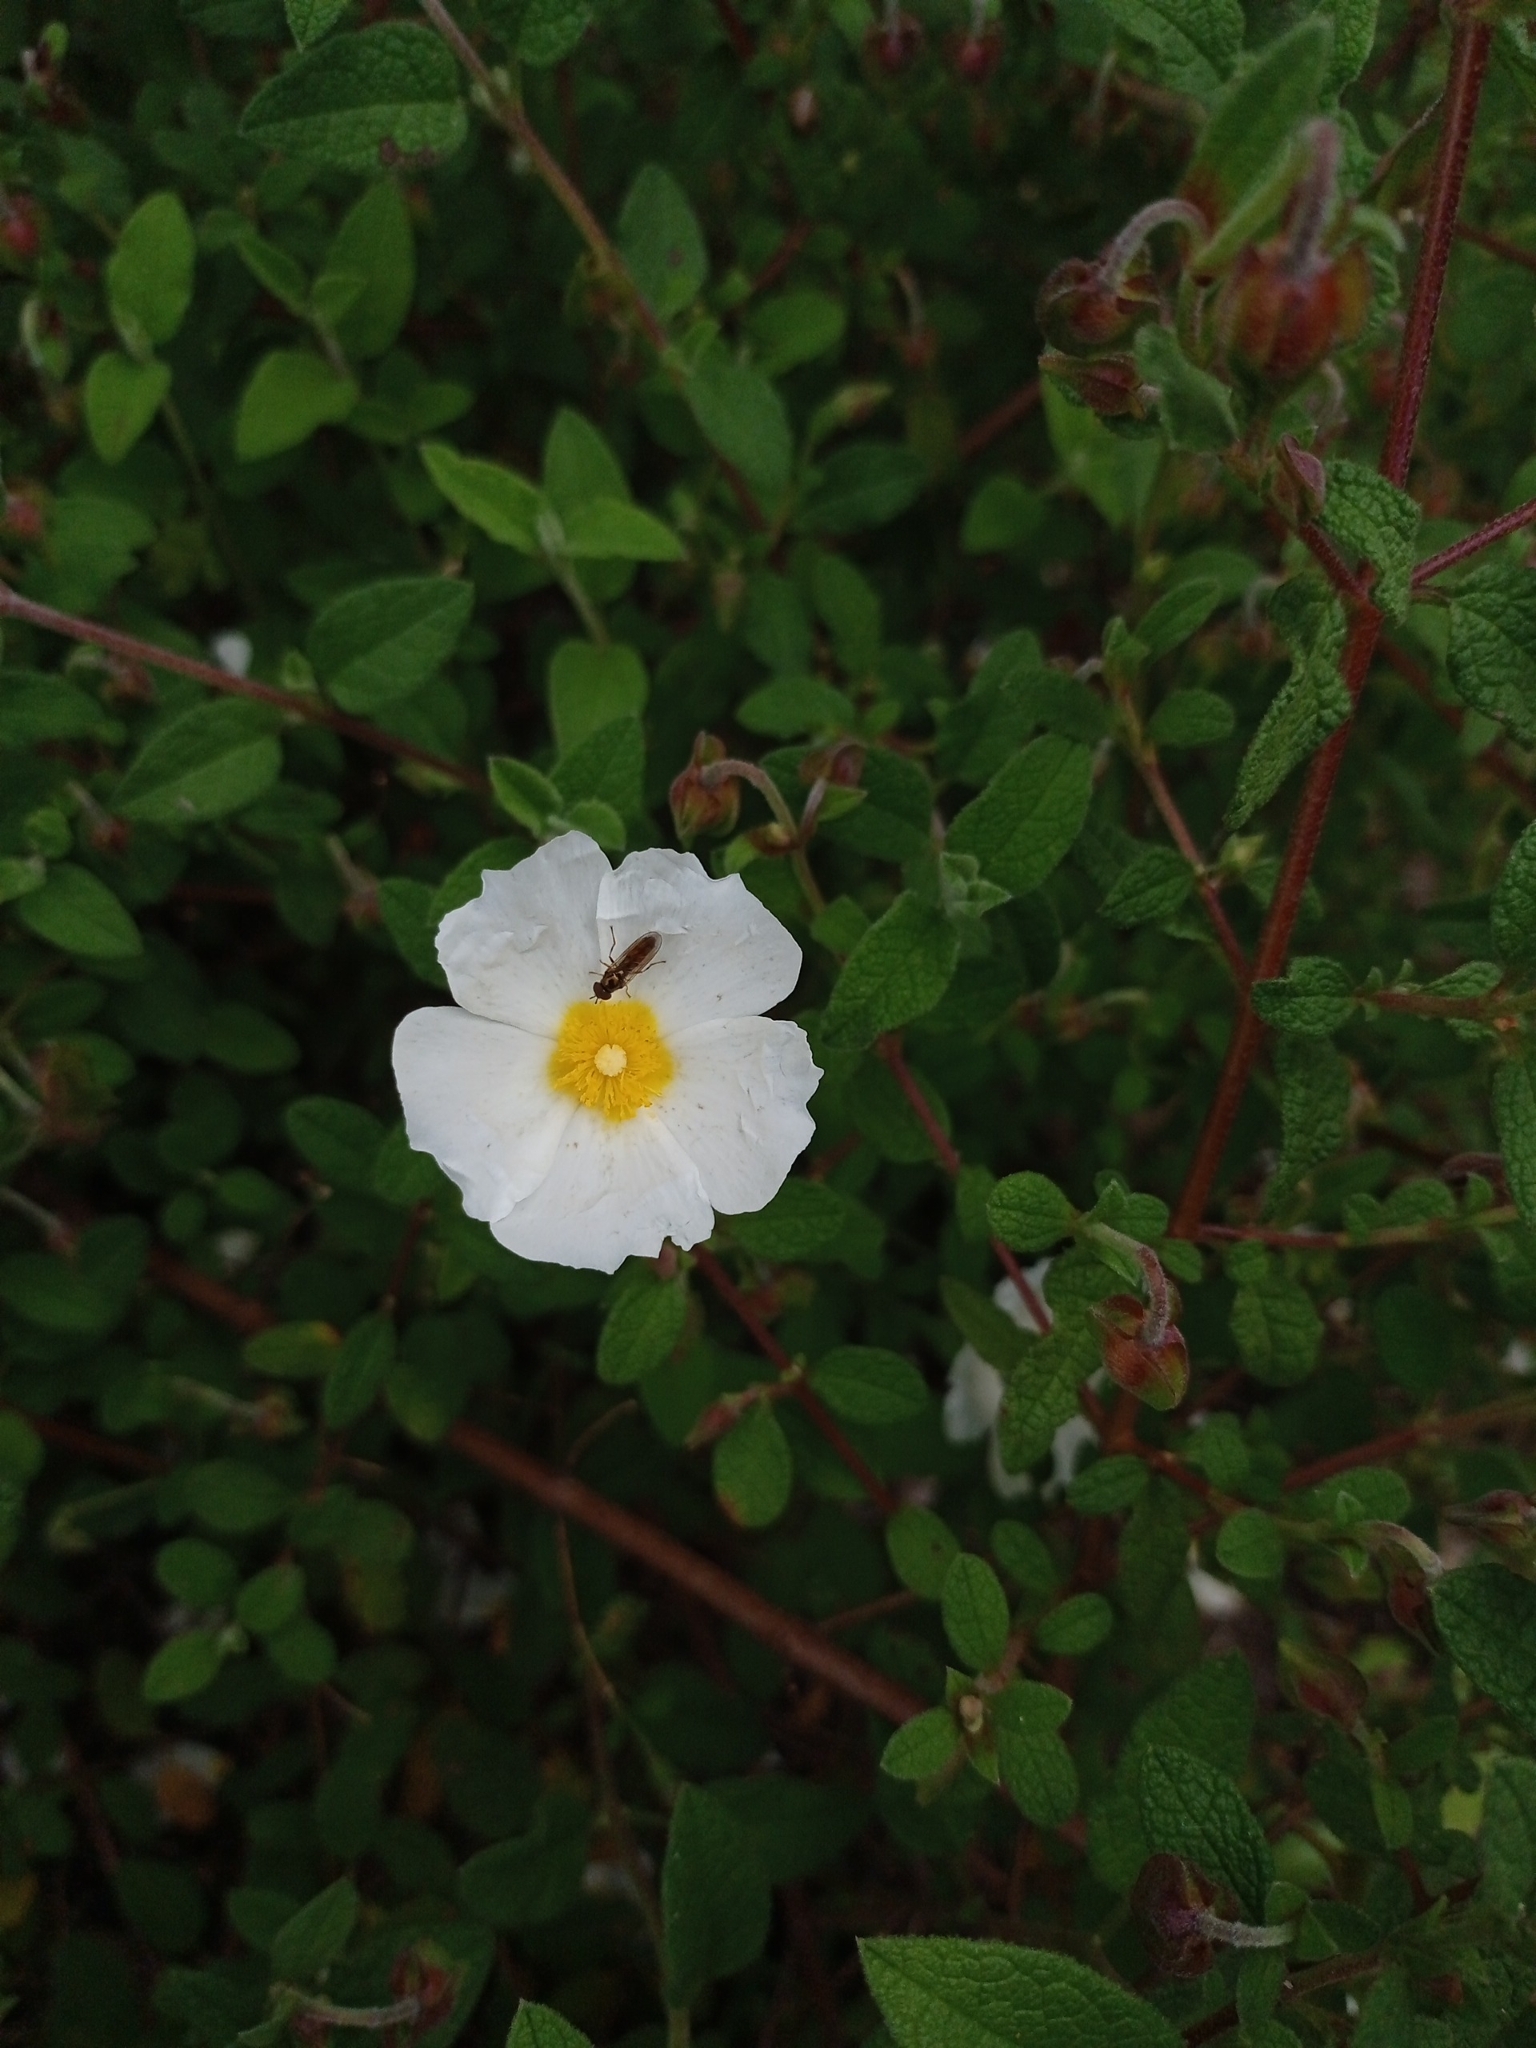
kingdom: Plantae
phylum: Tracheophyta
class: Magnoliopsida
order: Malvales
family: Cistaceae
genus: Cistus
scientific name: Cistus salviifolius
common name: Salvia cistus
